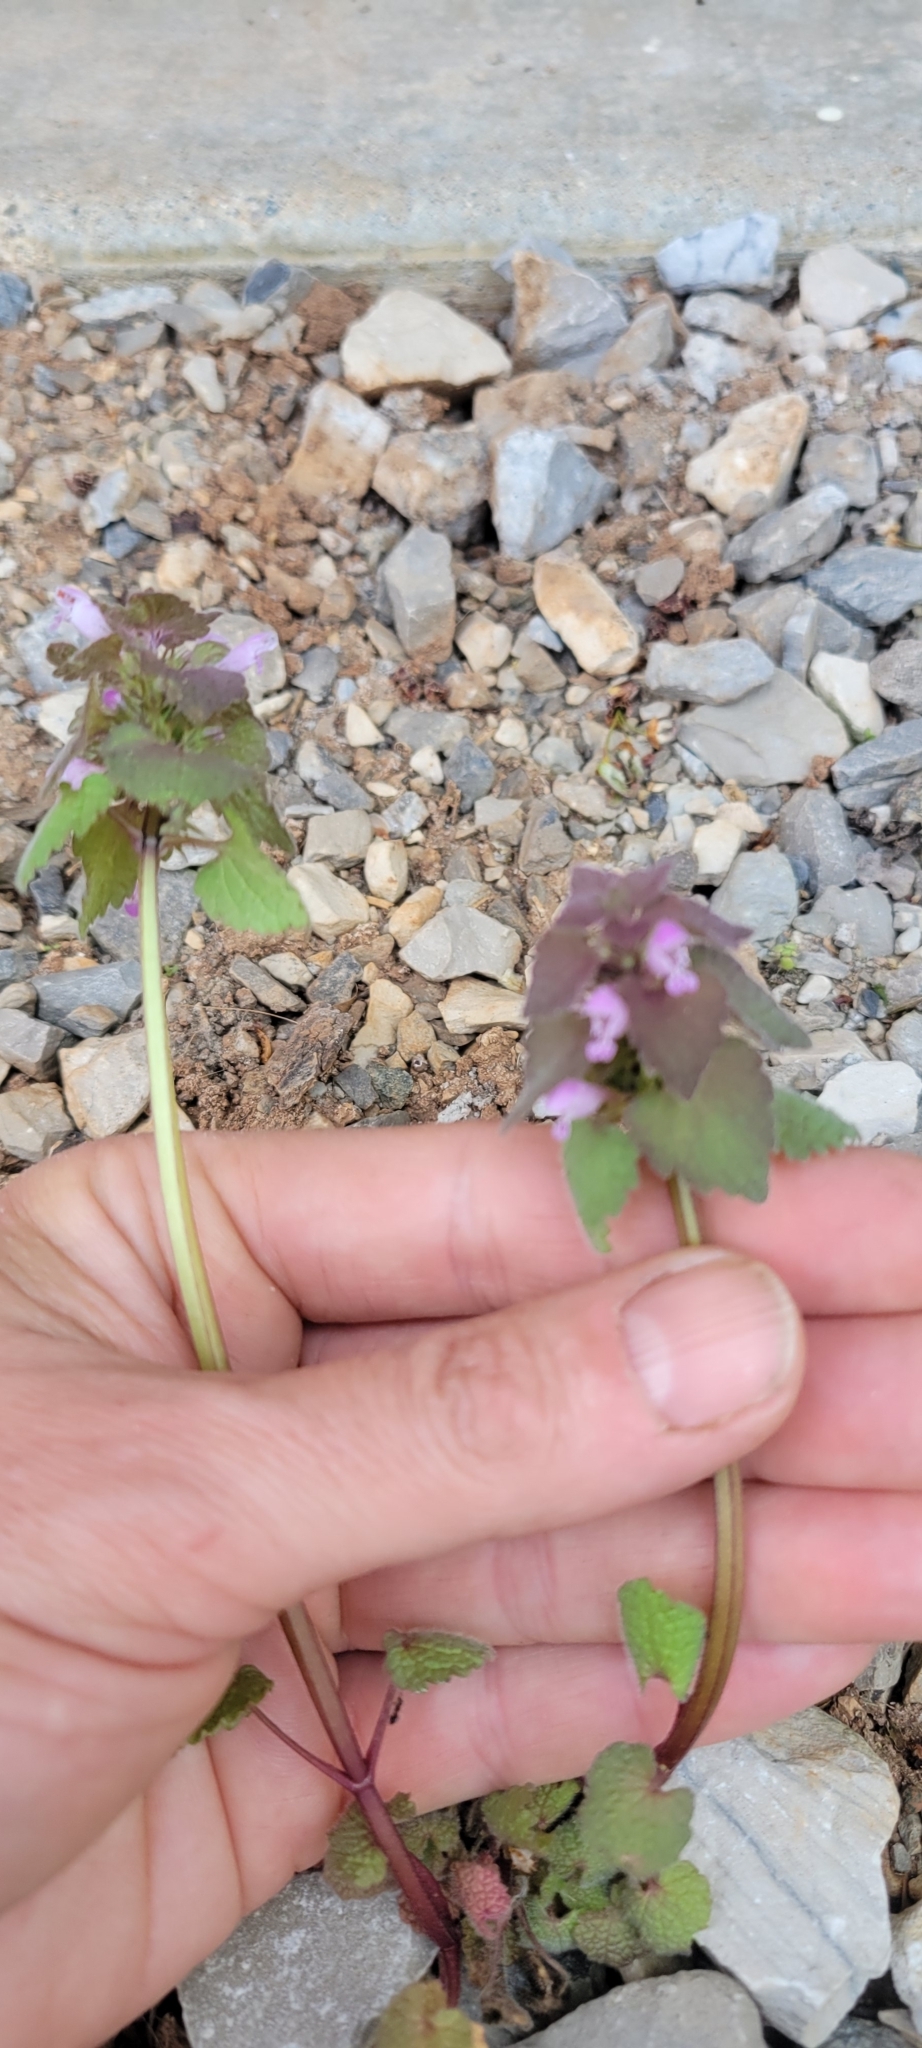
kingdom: Plantae
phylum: Tracheophyta
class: Magnoliopsida
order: Lamiales
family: Lamiaceae
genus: Lamium
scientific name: Lamium purpureum
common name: Red dead-nettle
